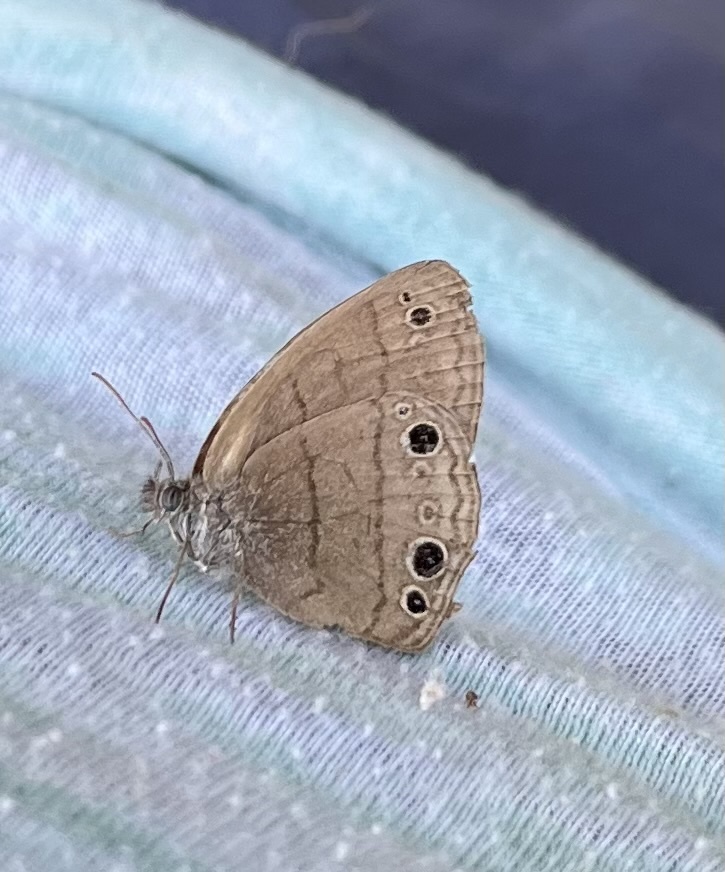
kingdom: Animalia
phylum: Arthropoda
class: Insecta
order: Lepidoptera
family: Nymphalidae
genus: Hermeuptychia
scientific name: Hermeuptychia hermes
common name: Hermes satyr
